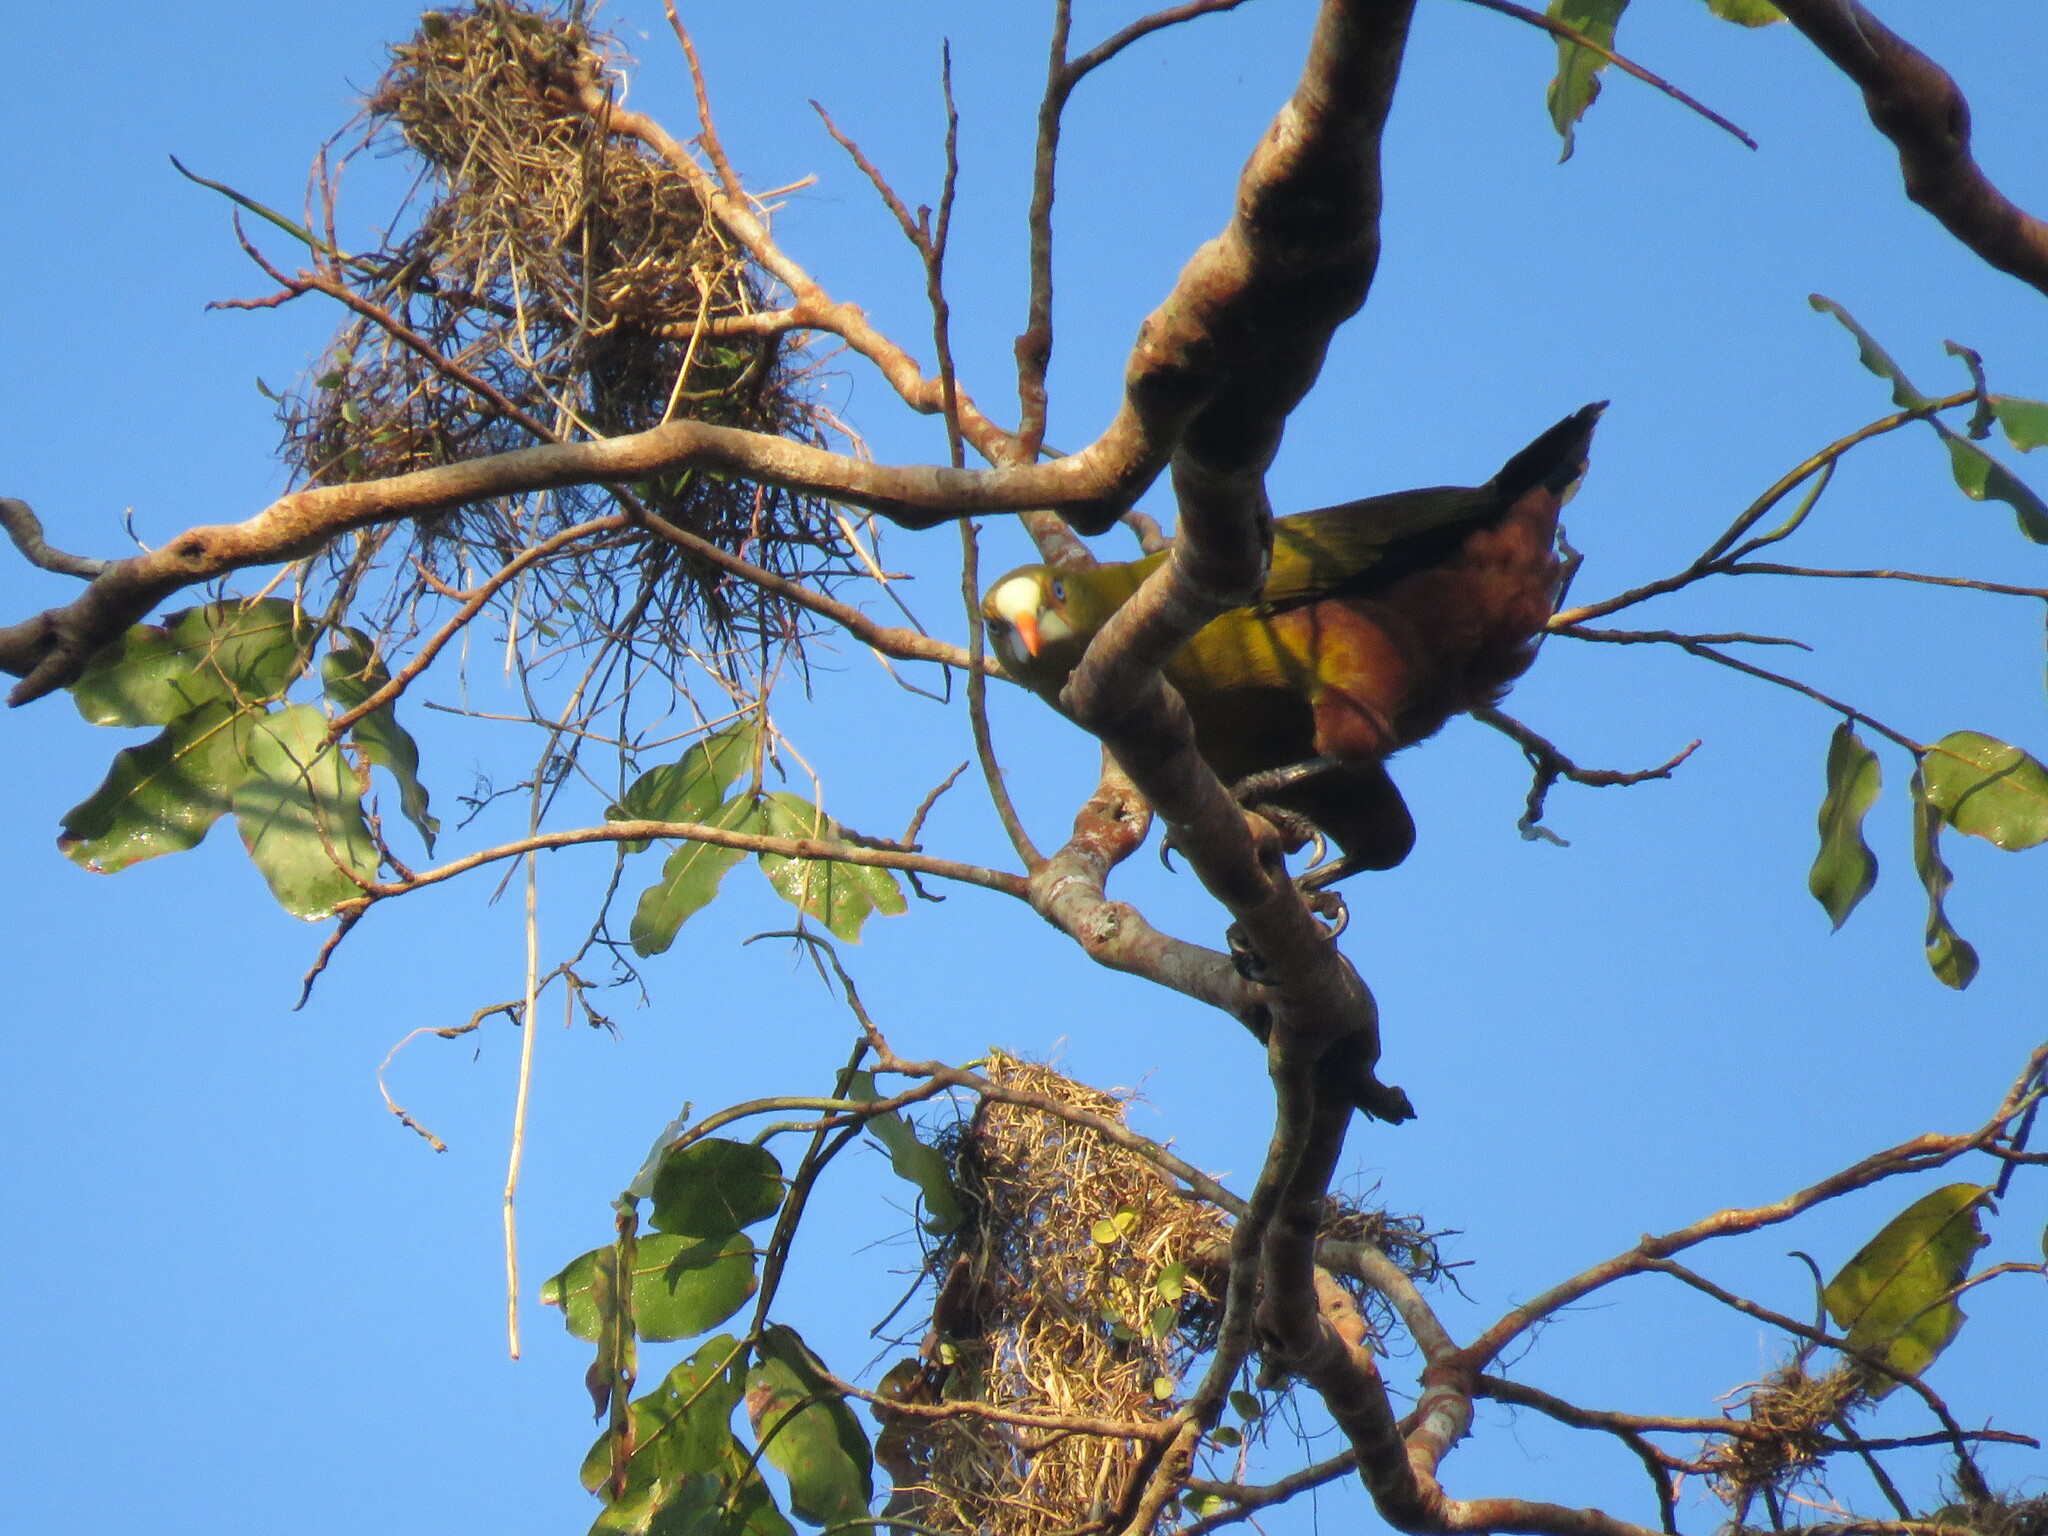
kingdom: Animalia
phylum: Chordata
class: Aves
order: Passeriformes
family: Icteridae
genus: Psarocolius
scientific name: Psarocolius viridis
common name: Green oropendola
